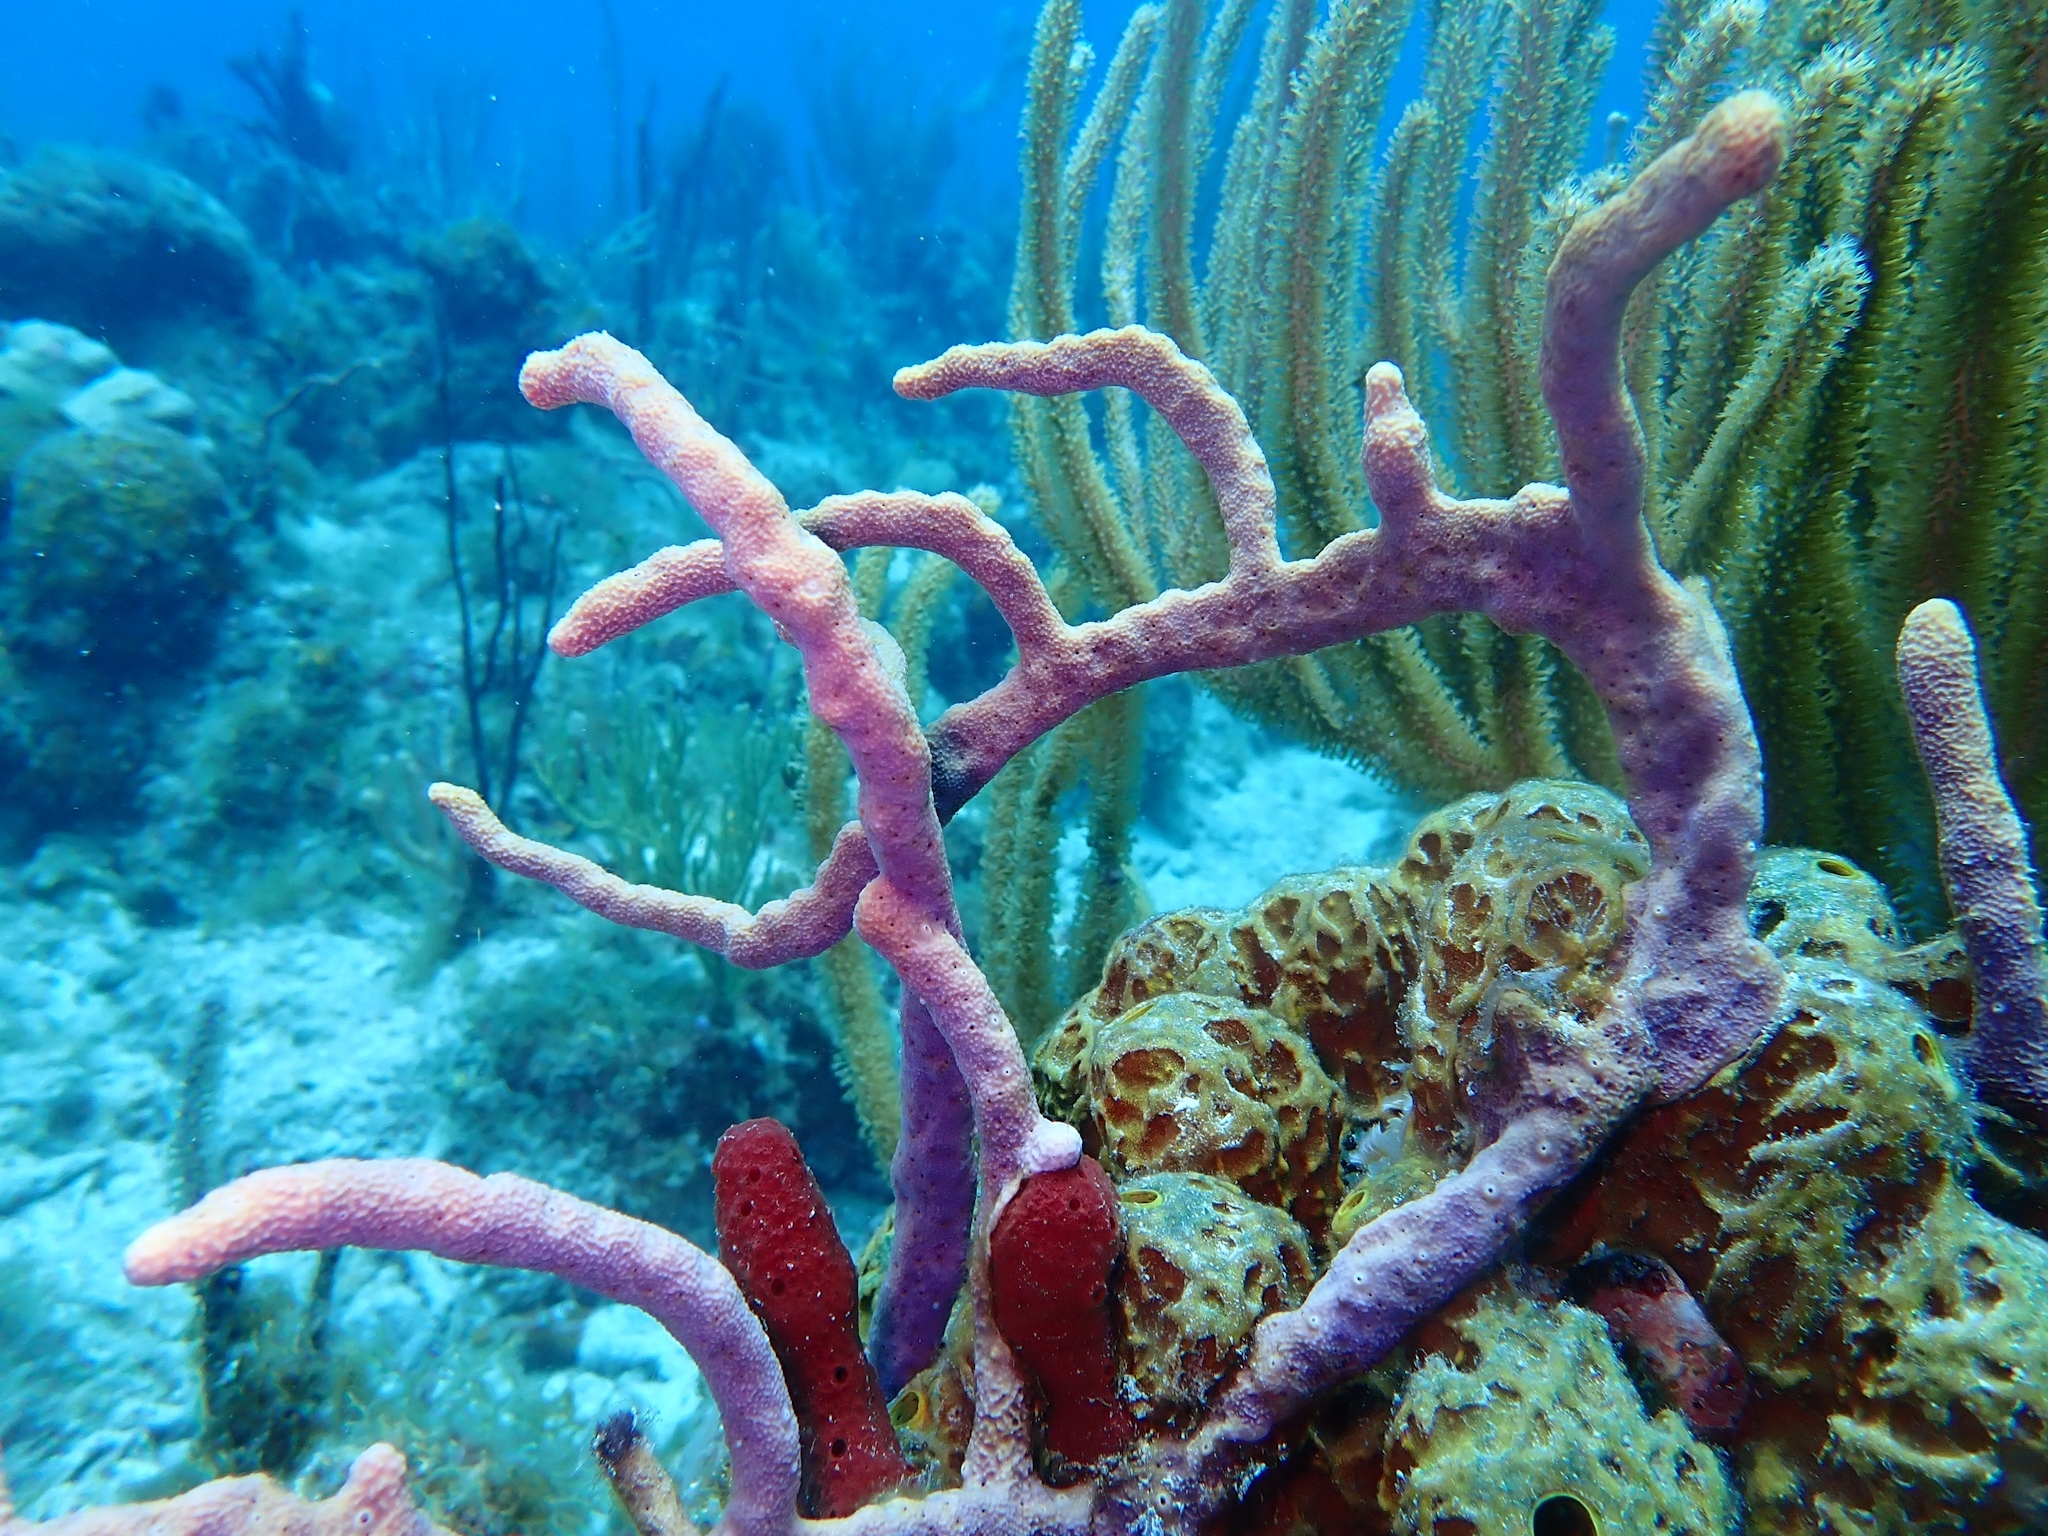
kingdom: Animalia
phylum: Porifera
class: Demospongiae
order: Verongiida
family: Aplysinidae
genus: Aplysina
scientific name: Aplysina cauliformis
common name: Branching candle sponge
